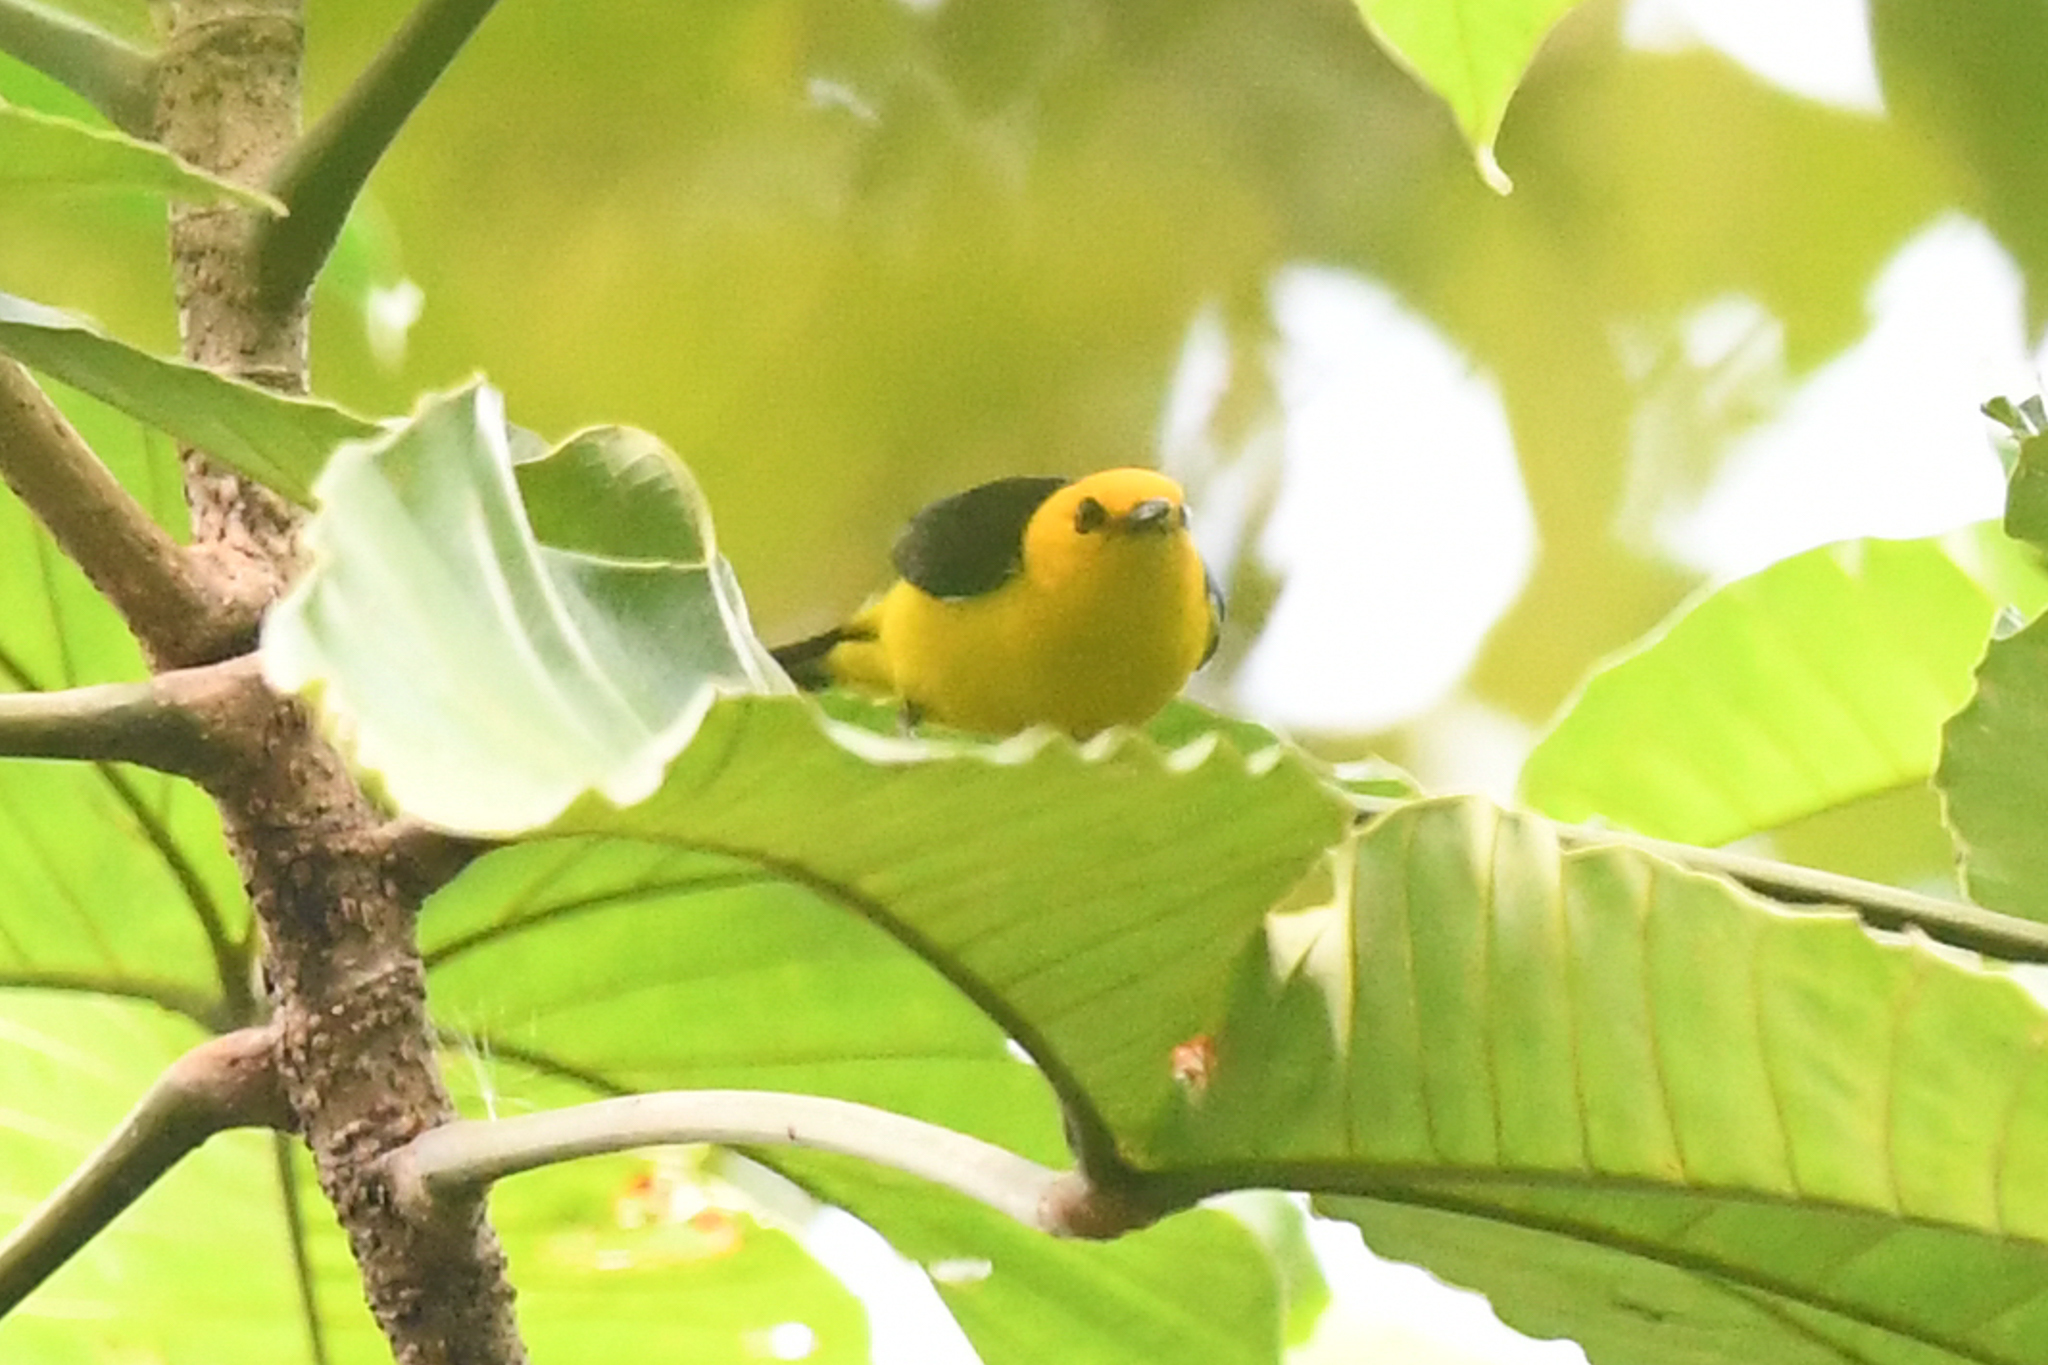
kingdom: Animalia
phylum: Chordata
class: Aves
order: Passeriformes
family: Thraupidae
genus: Chrysothlypis
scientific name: Chrysothlypis chrysomelas
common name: Black-and-yellow tanager
